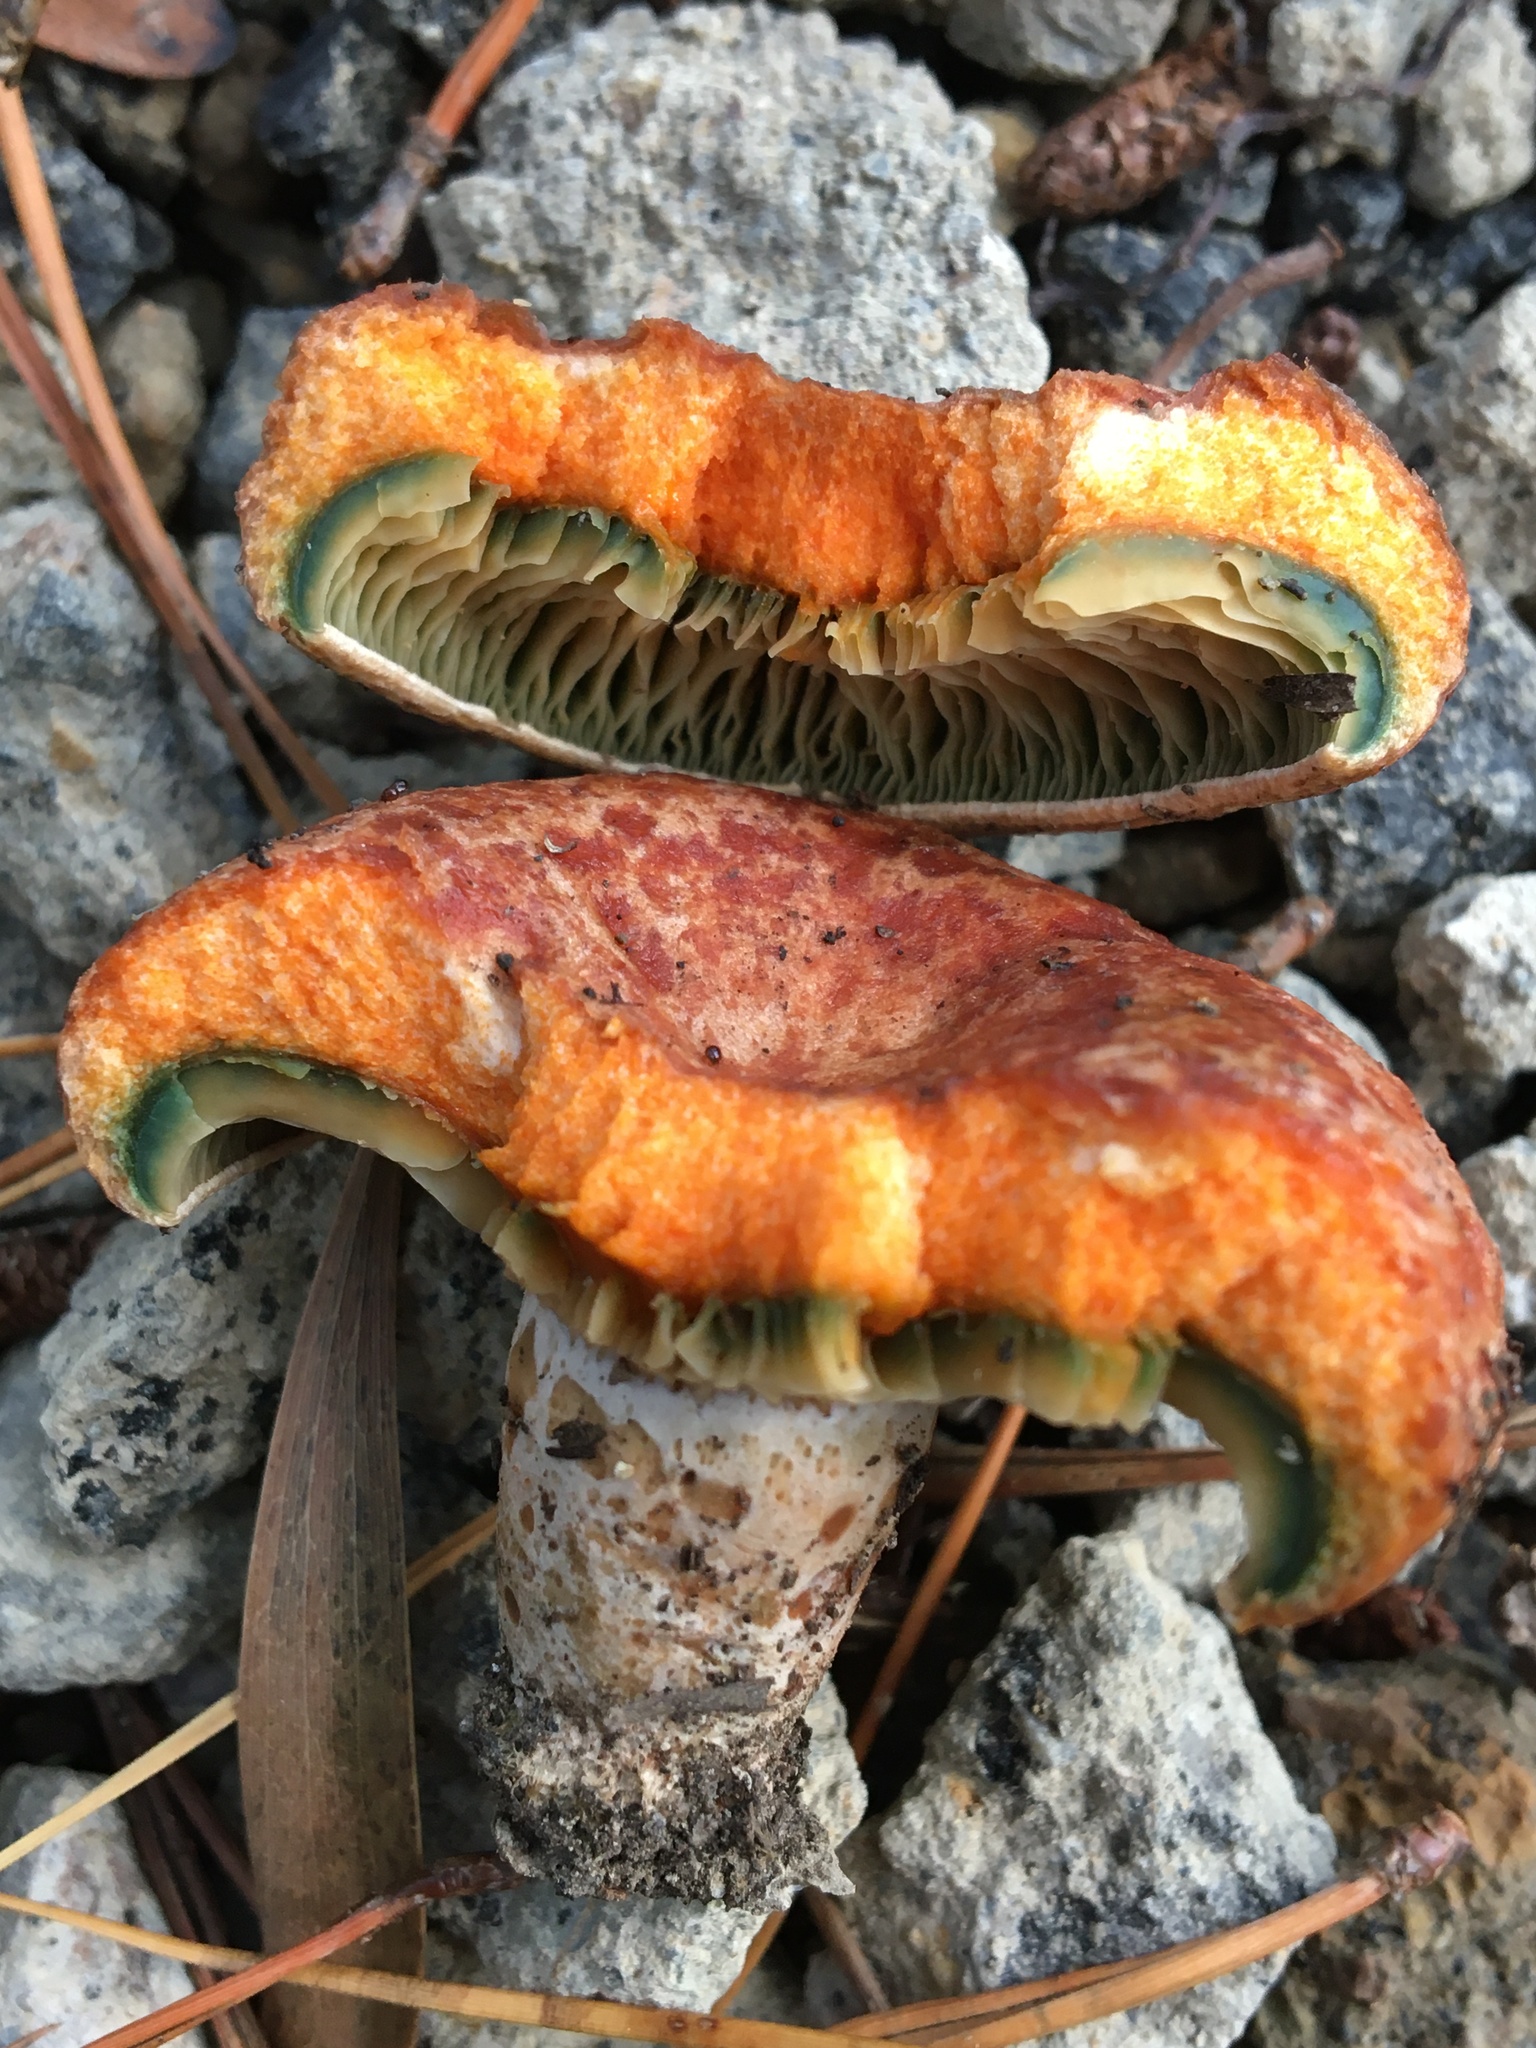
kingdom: Fungi
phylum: Basidiomycota
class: Agaricomycetes
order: Russulales
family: Russulaceae
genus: Lactarius
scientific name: Lactarius deliciosus
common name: Saffron milk-cap
